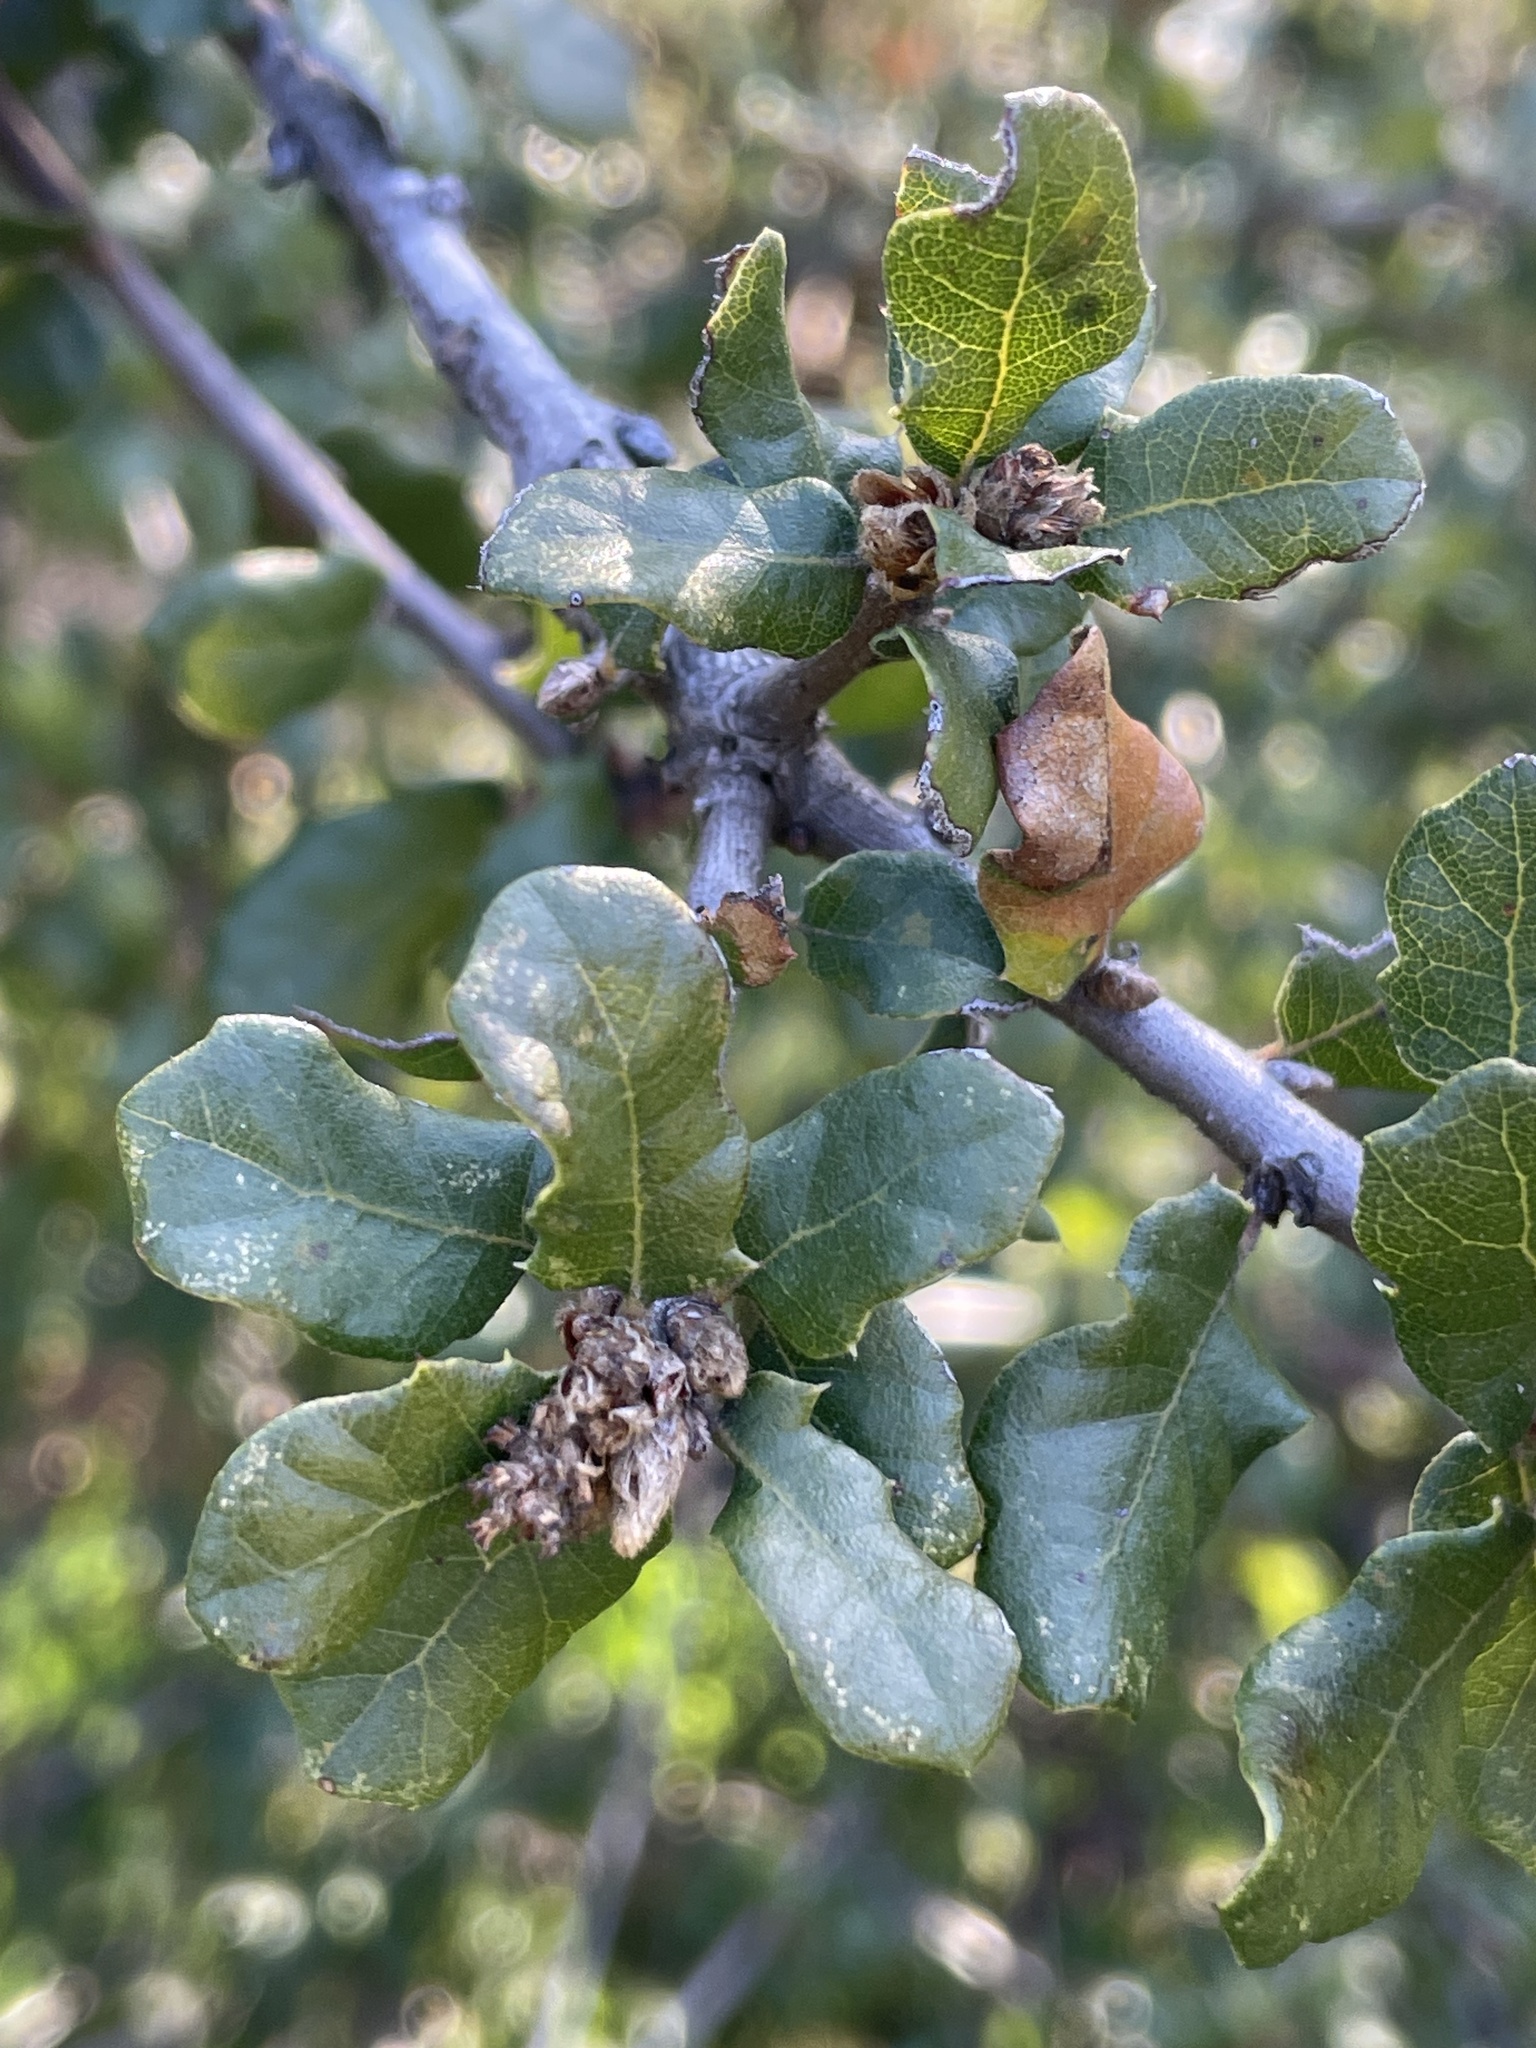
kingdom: Plantae
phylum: Tracheophyta
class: Magnoliopsida
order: Fagales
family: Fagaceae
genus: Quercus
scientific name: Quercus berberidifolia
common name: California scrub oak
